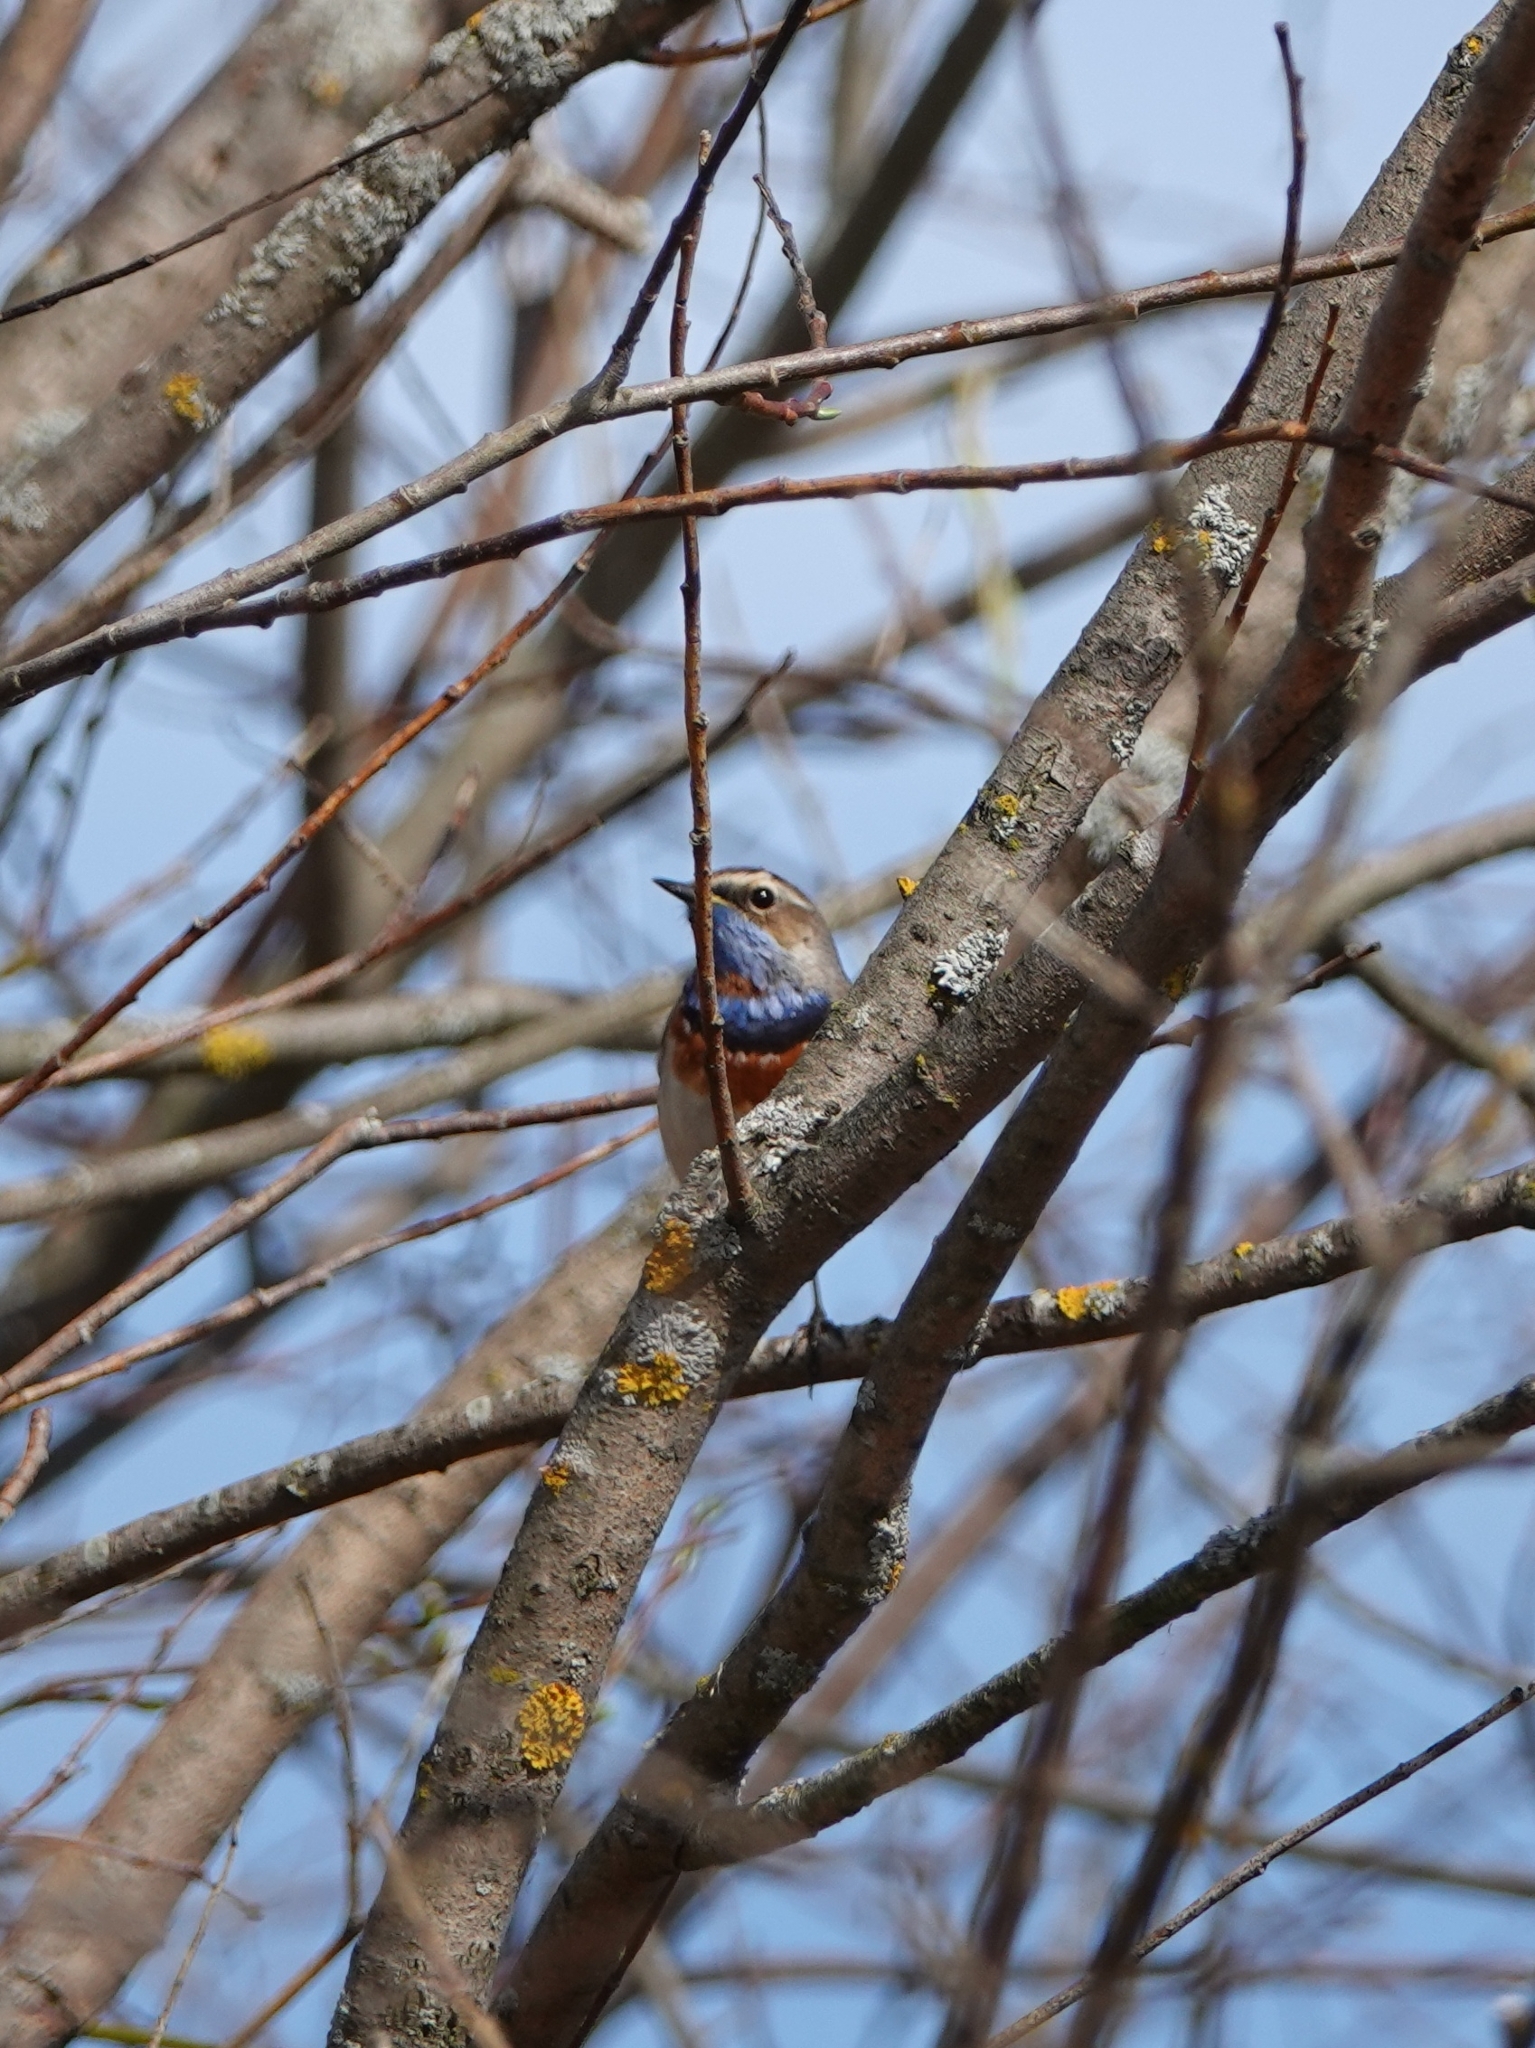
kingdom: Animalia
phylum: Chordata
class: Aves
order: Passeriformes
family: Muscicapidae
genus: Luscinia
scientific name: Luscinia svecica
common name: Bluethroat
